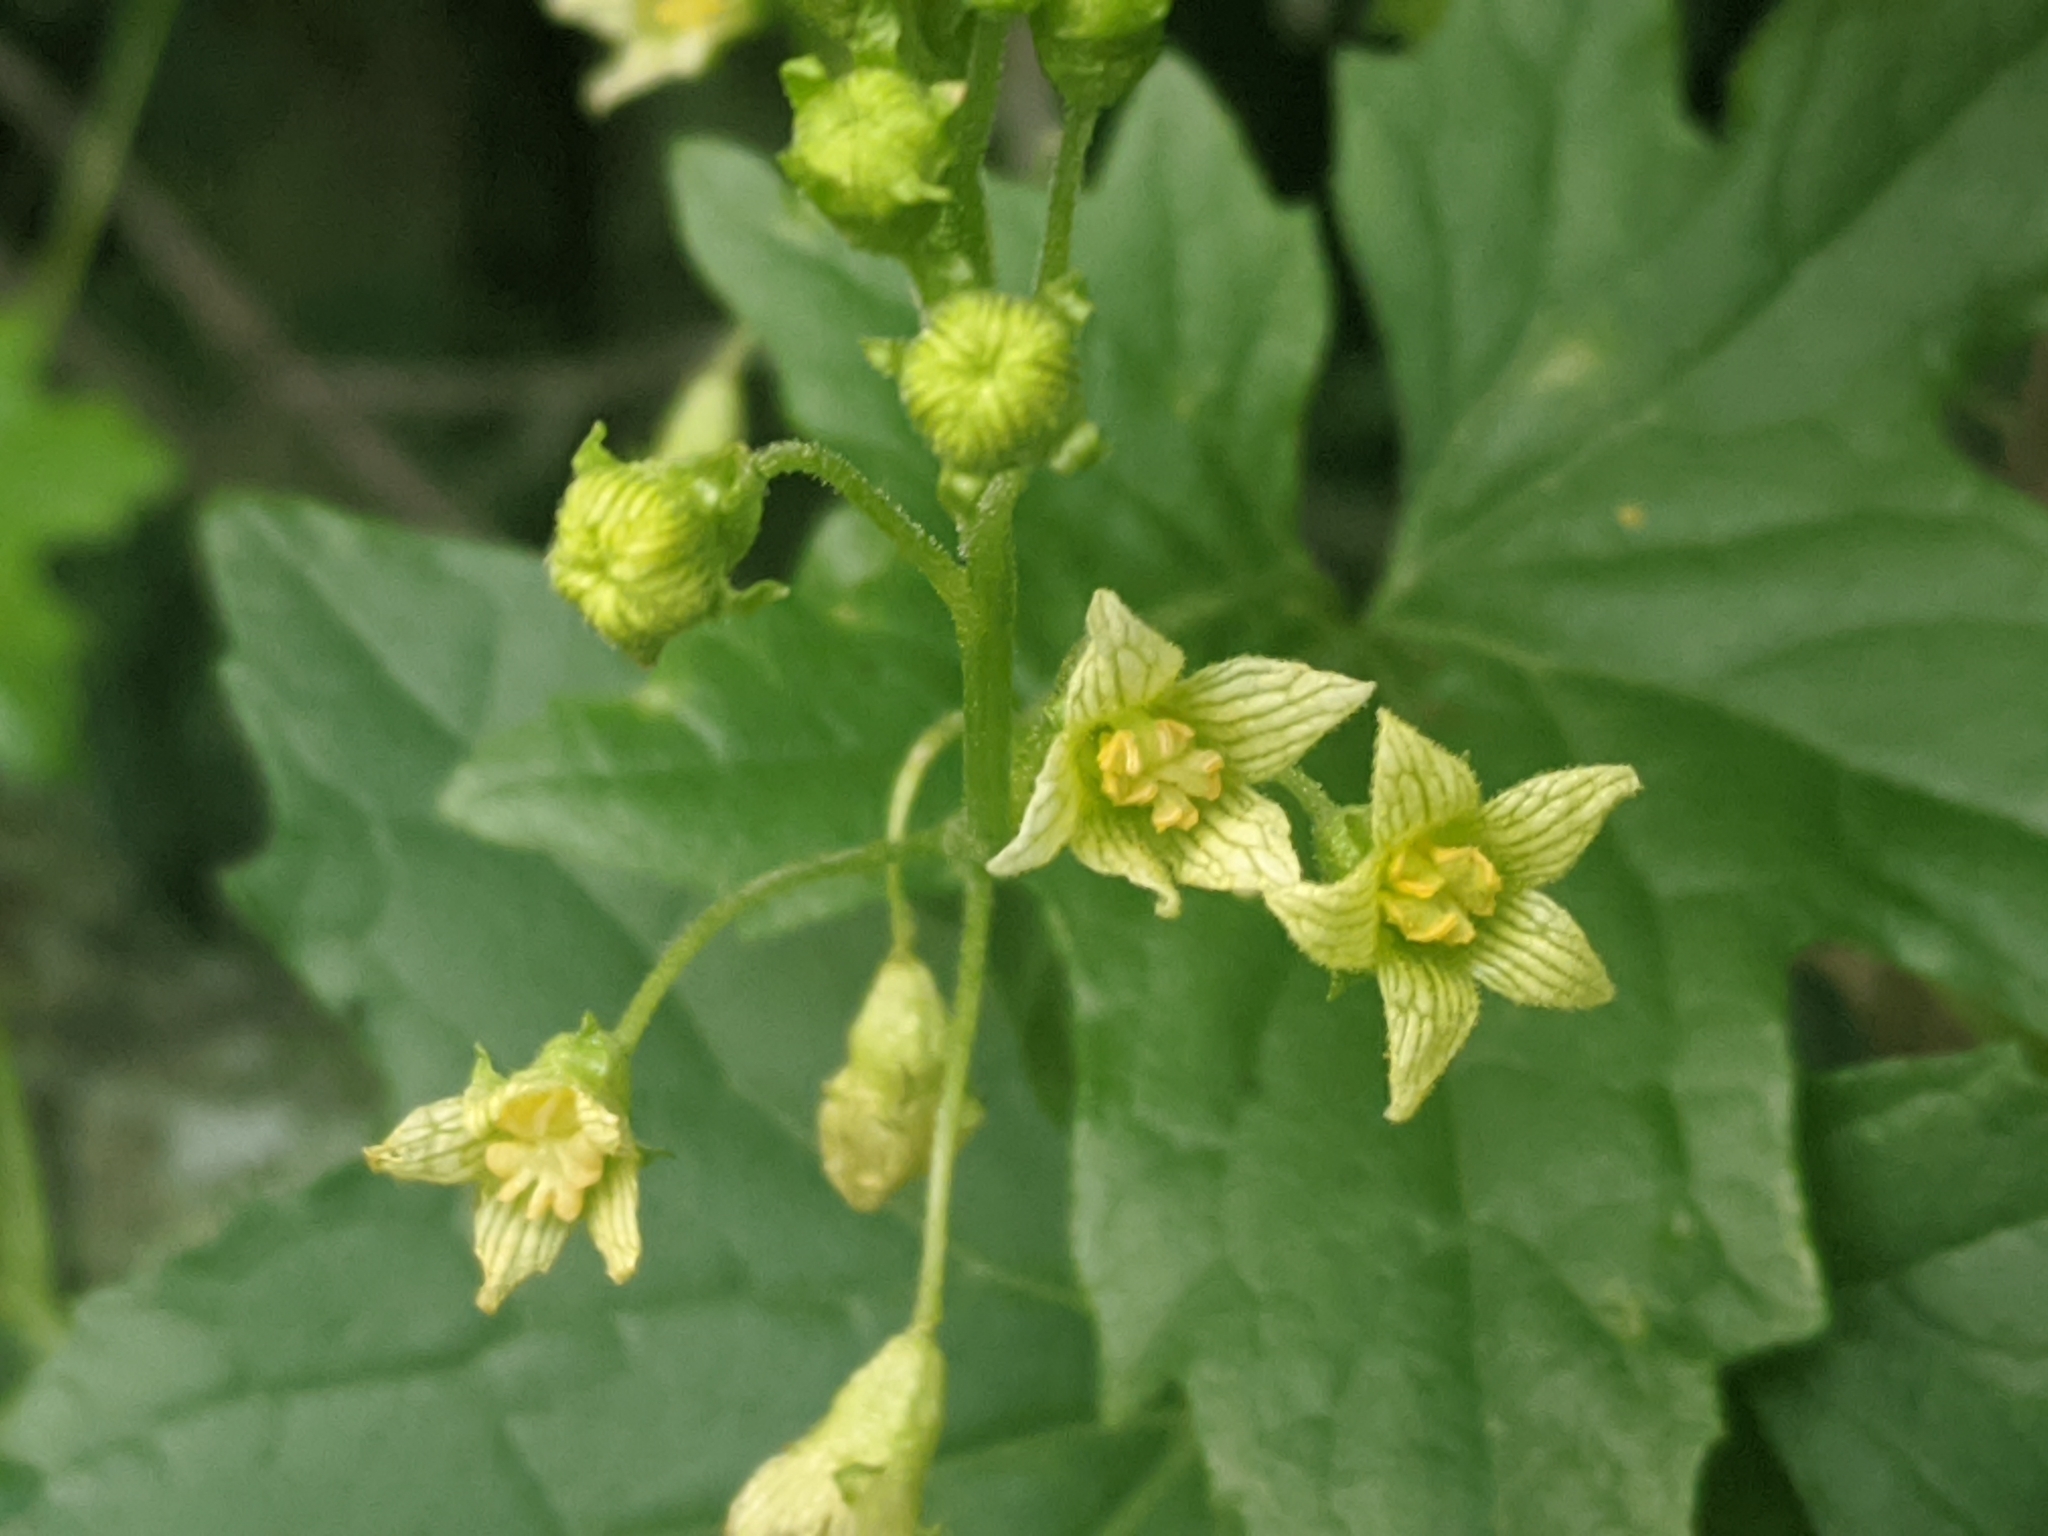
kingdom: Plantae
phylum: Tracheophyta
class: Magnoliopsida
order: Cucurbitales
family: Cucurbitaceae
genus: Bryonia
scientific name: Bryonia alba
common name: White bryony
